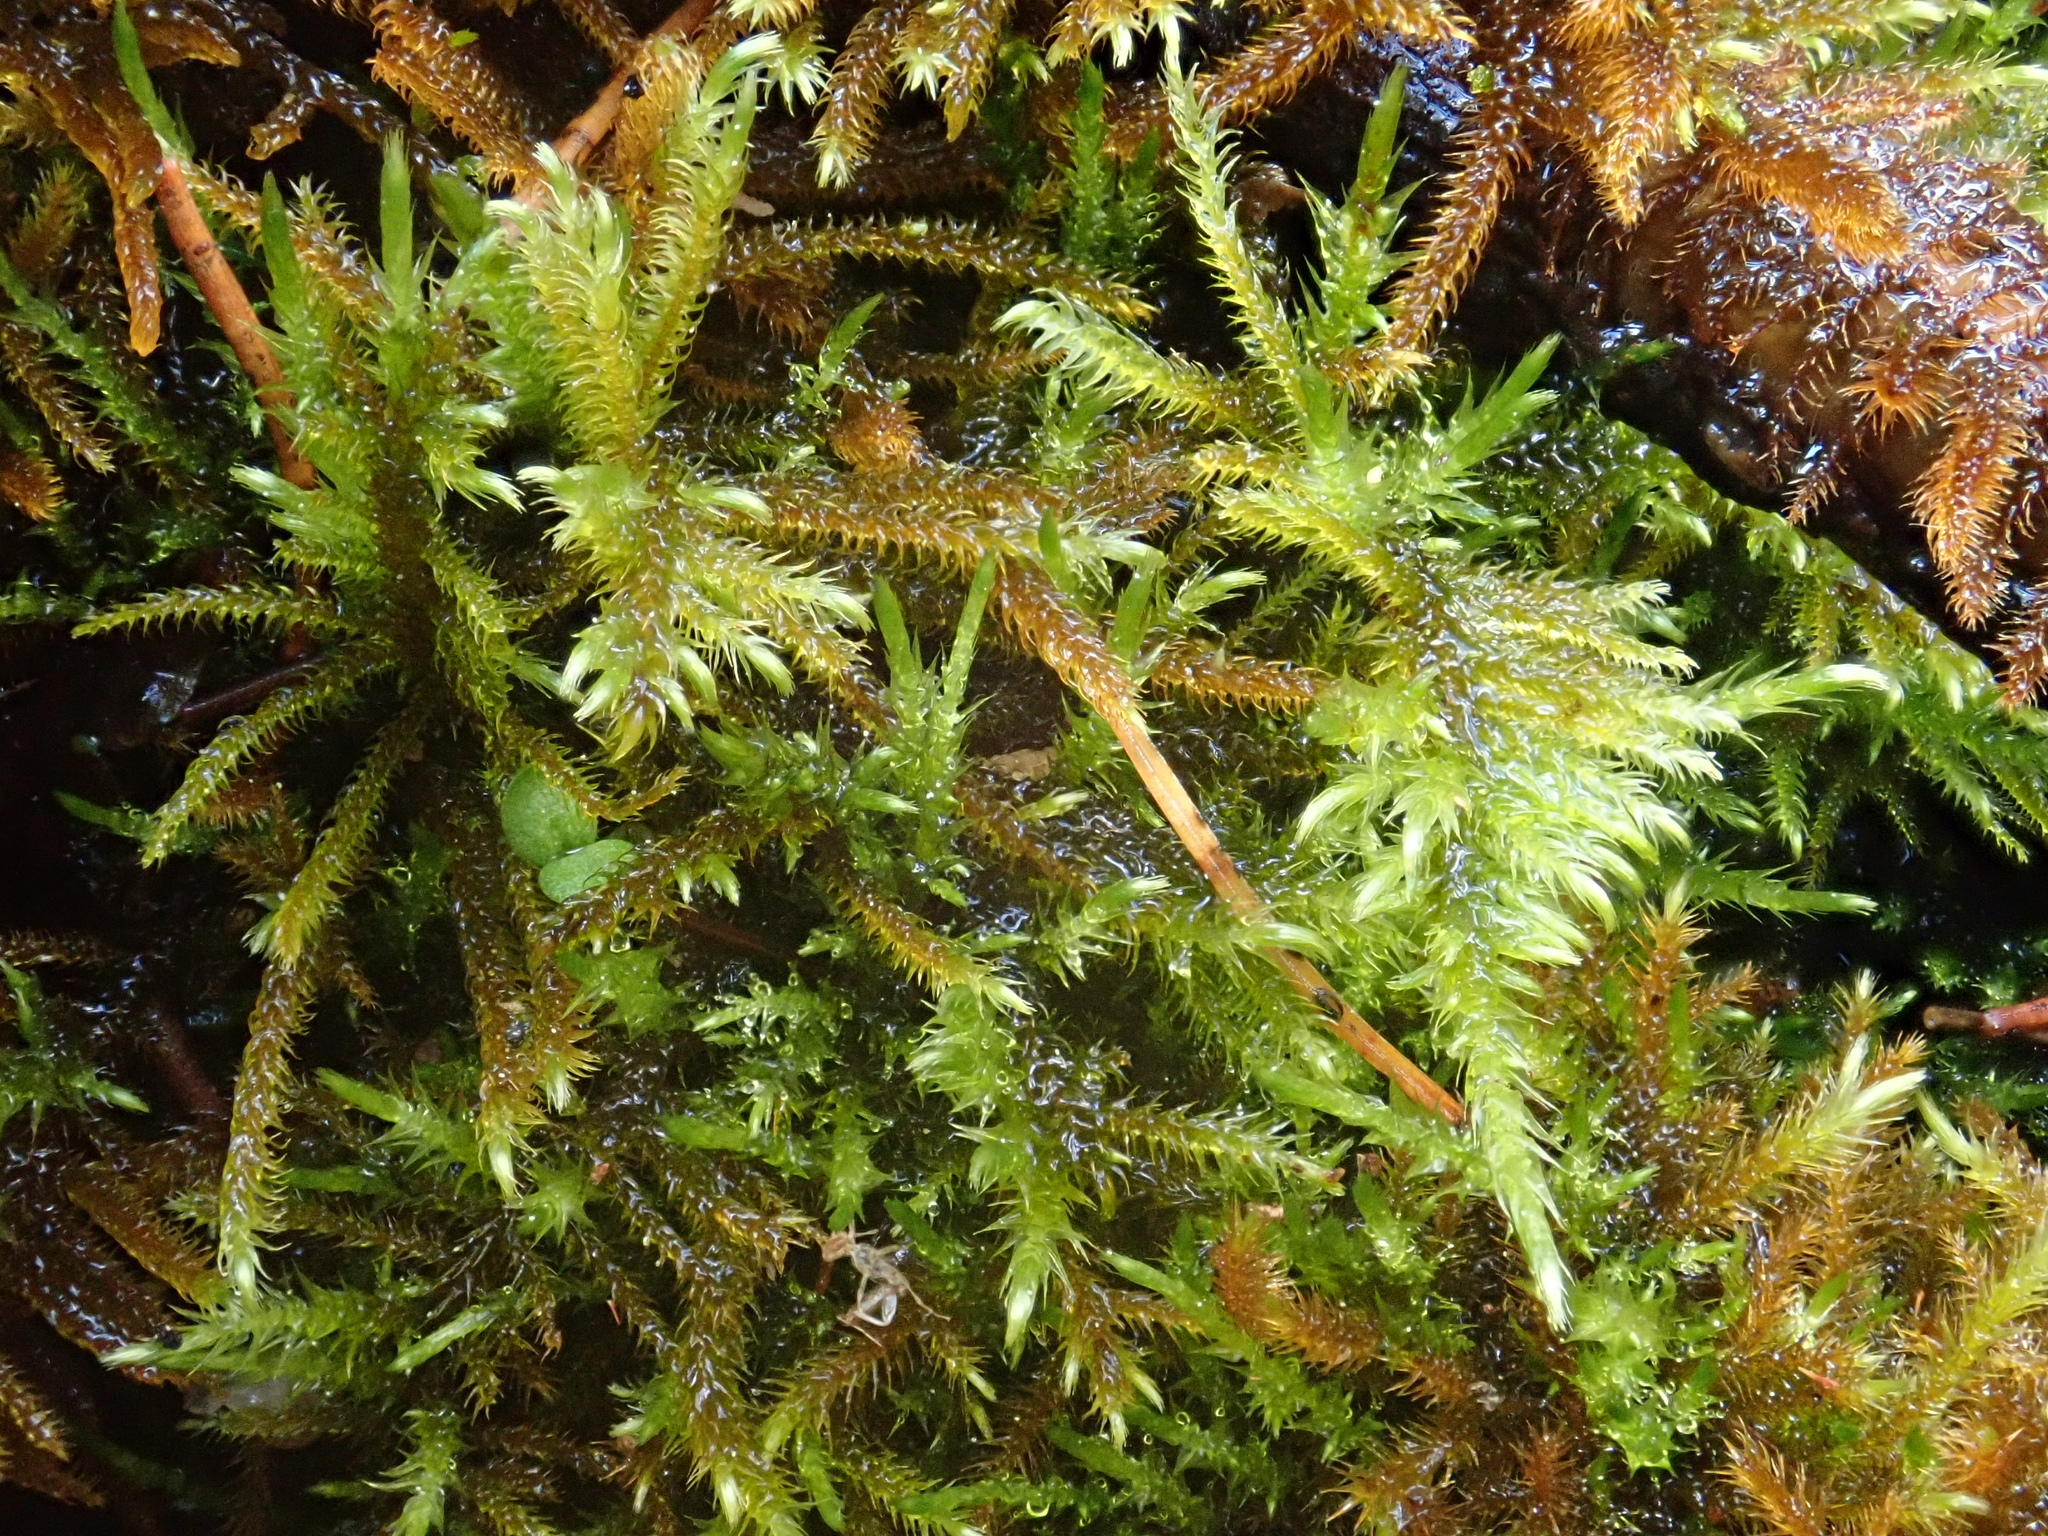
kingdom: Plantae
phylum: Bryophyta
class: Bryopsida
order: Hypnales
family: Amblystegiaceae
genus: Cratoneuron
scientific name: Cratoneuron filicinum
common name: Fern-leaved hook moss
